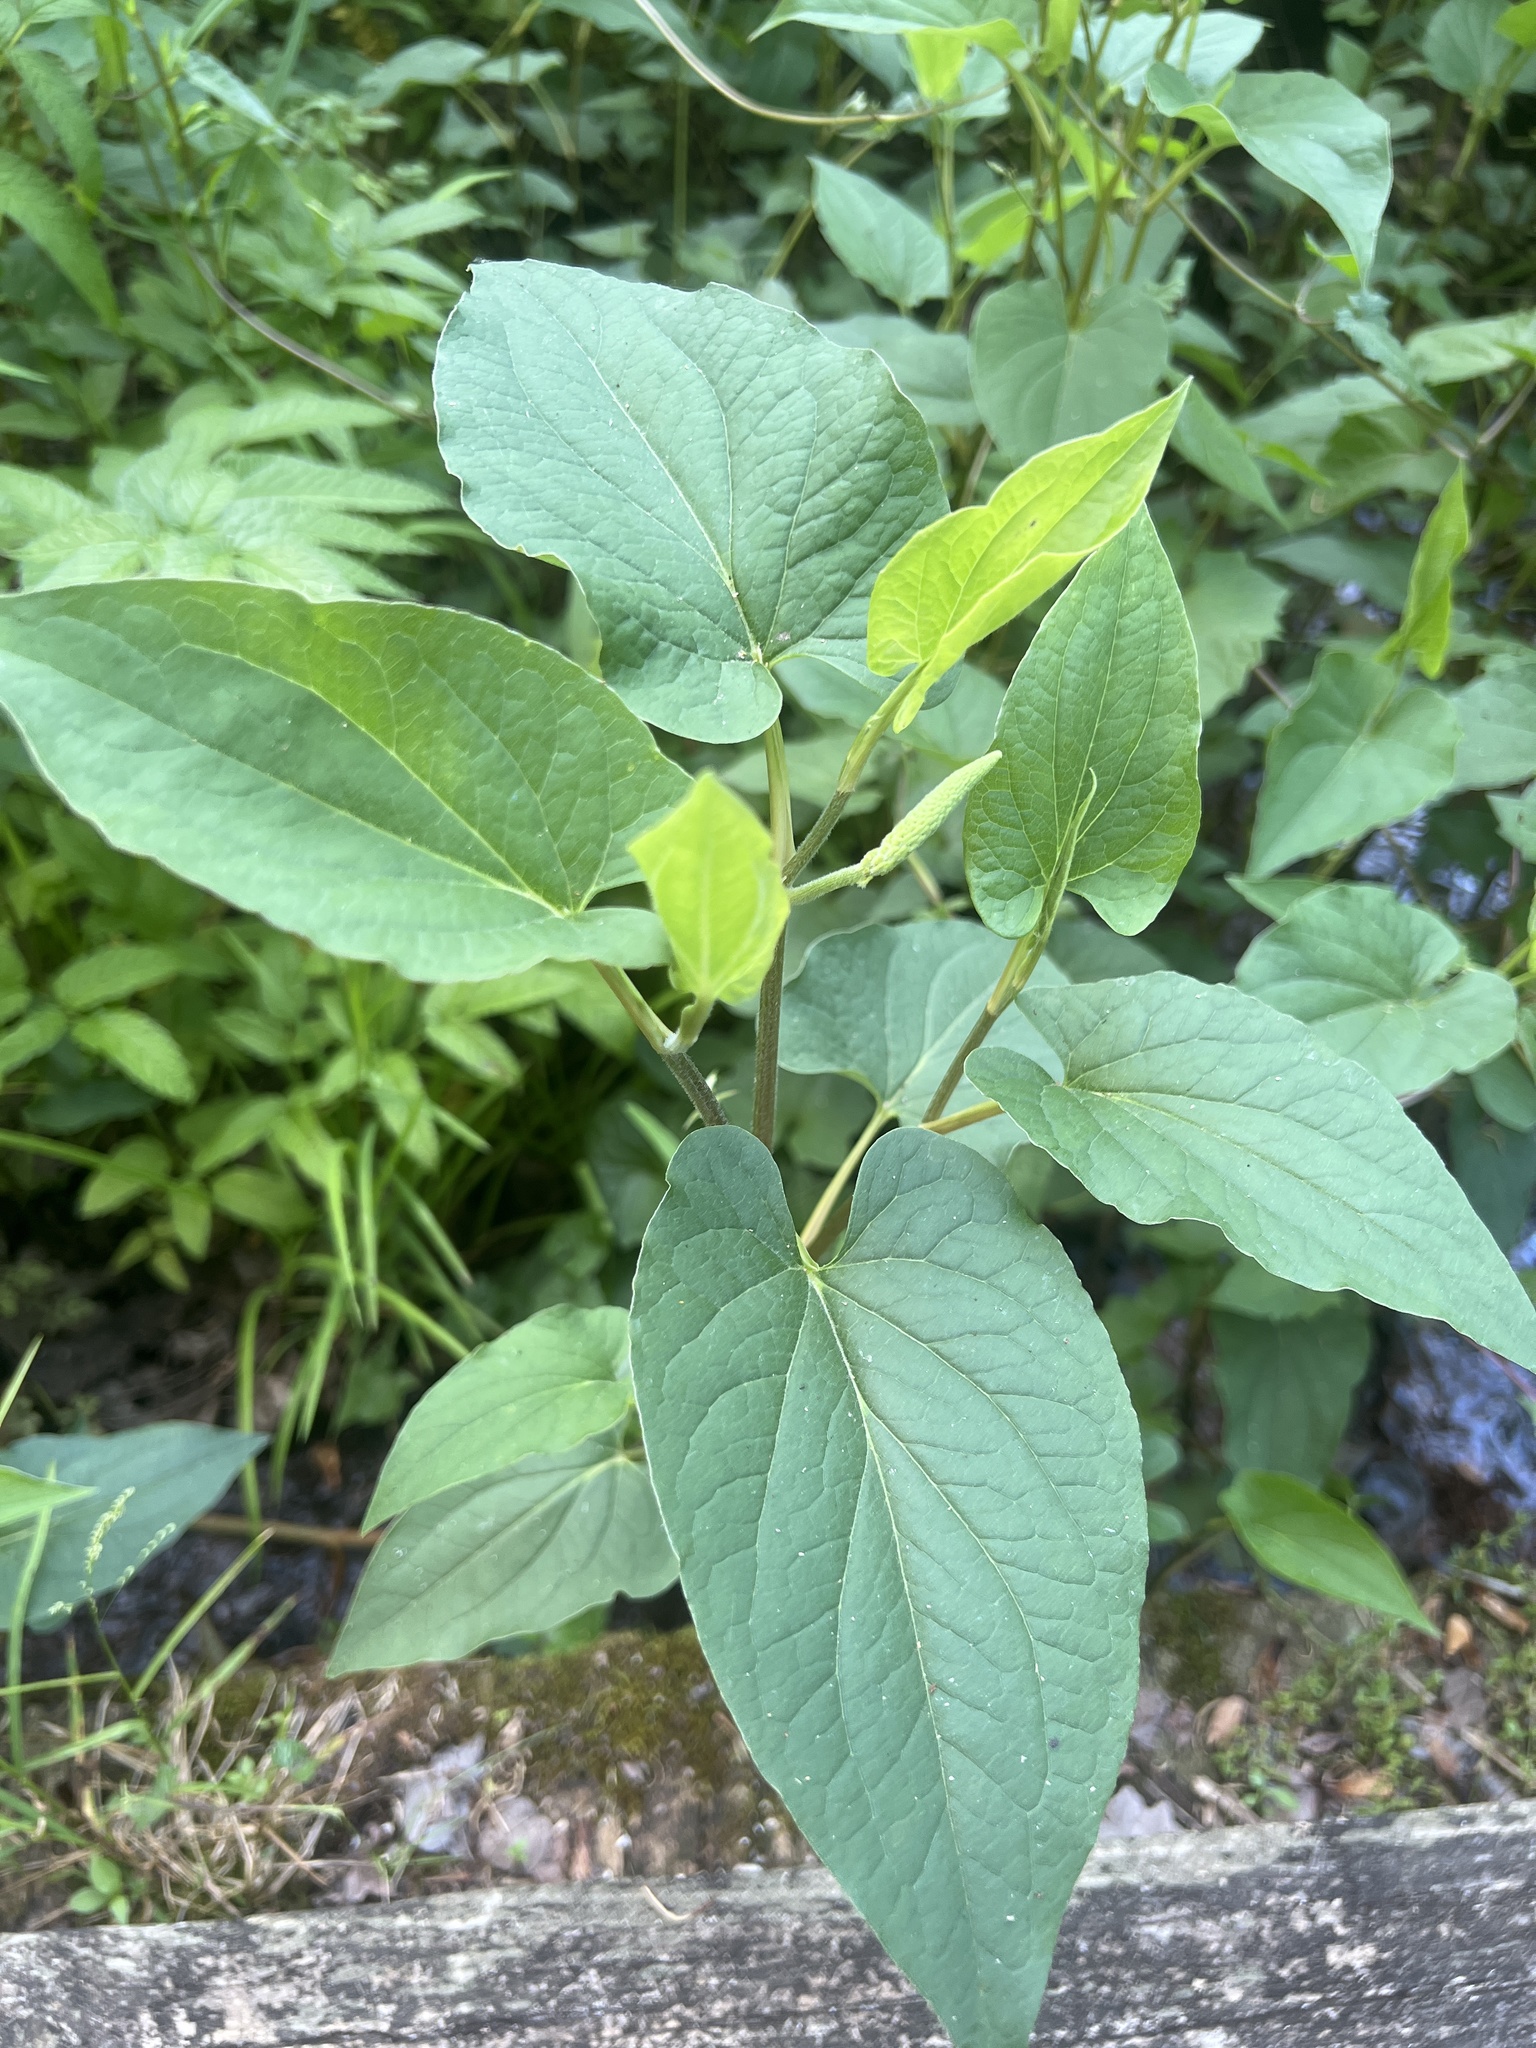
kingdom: Plantae
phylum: Tracheophyta
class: Magnoliopsida
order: Piperales
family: Saururaceae
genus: Saururus
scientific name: Saururus cernuus
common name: Lizard's-tail
